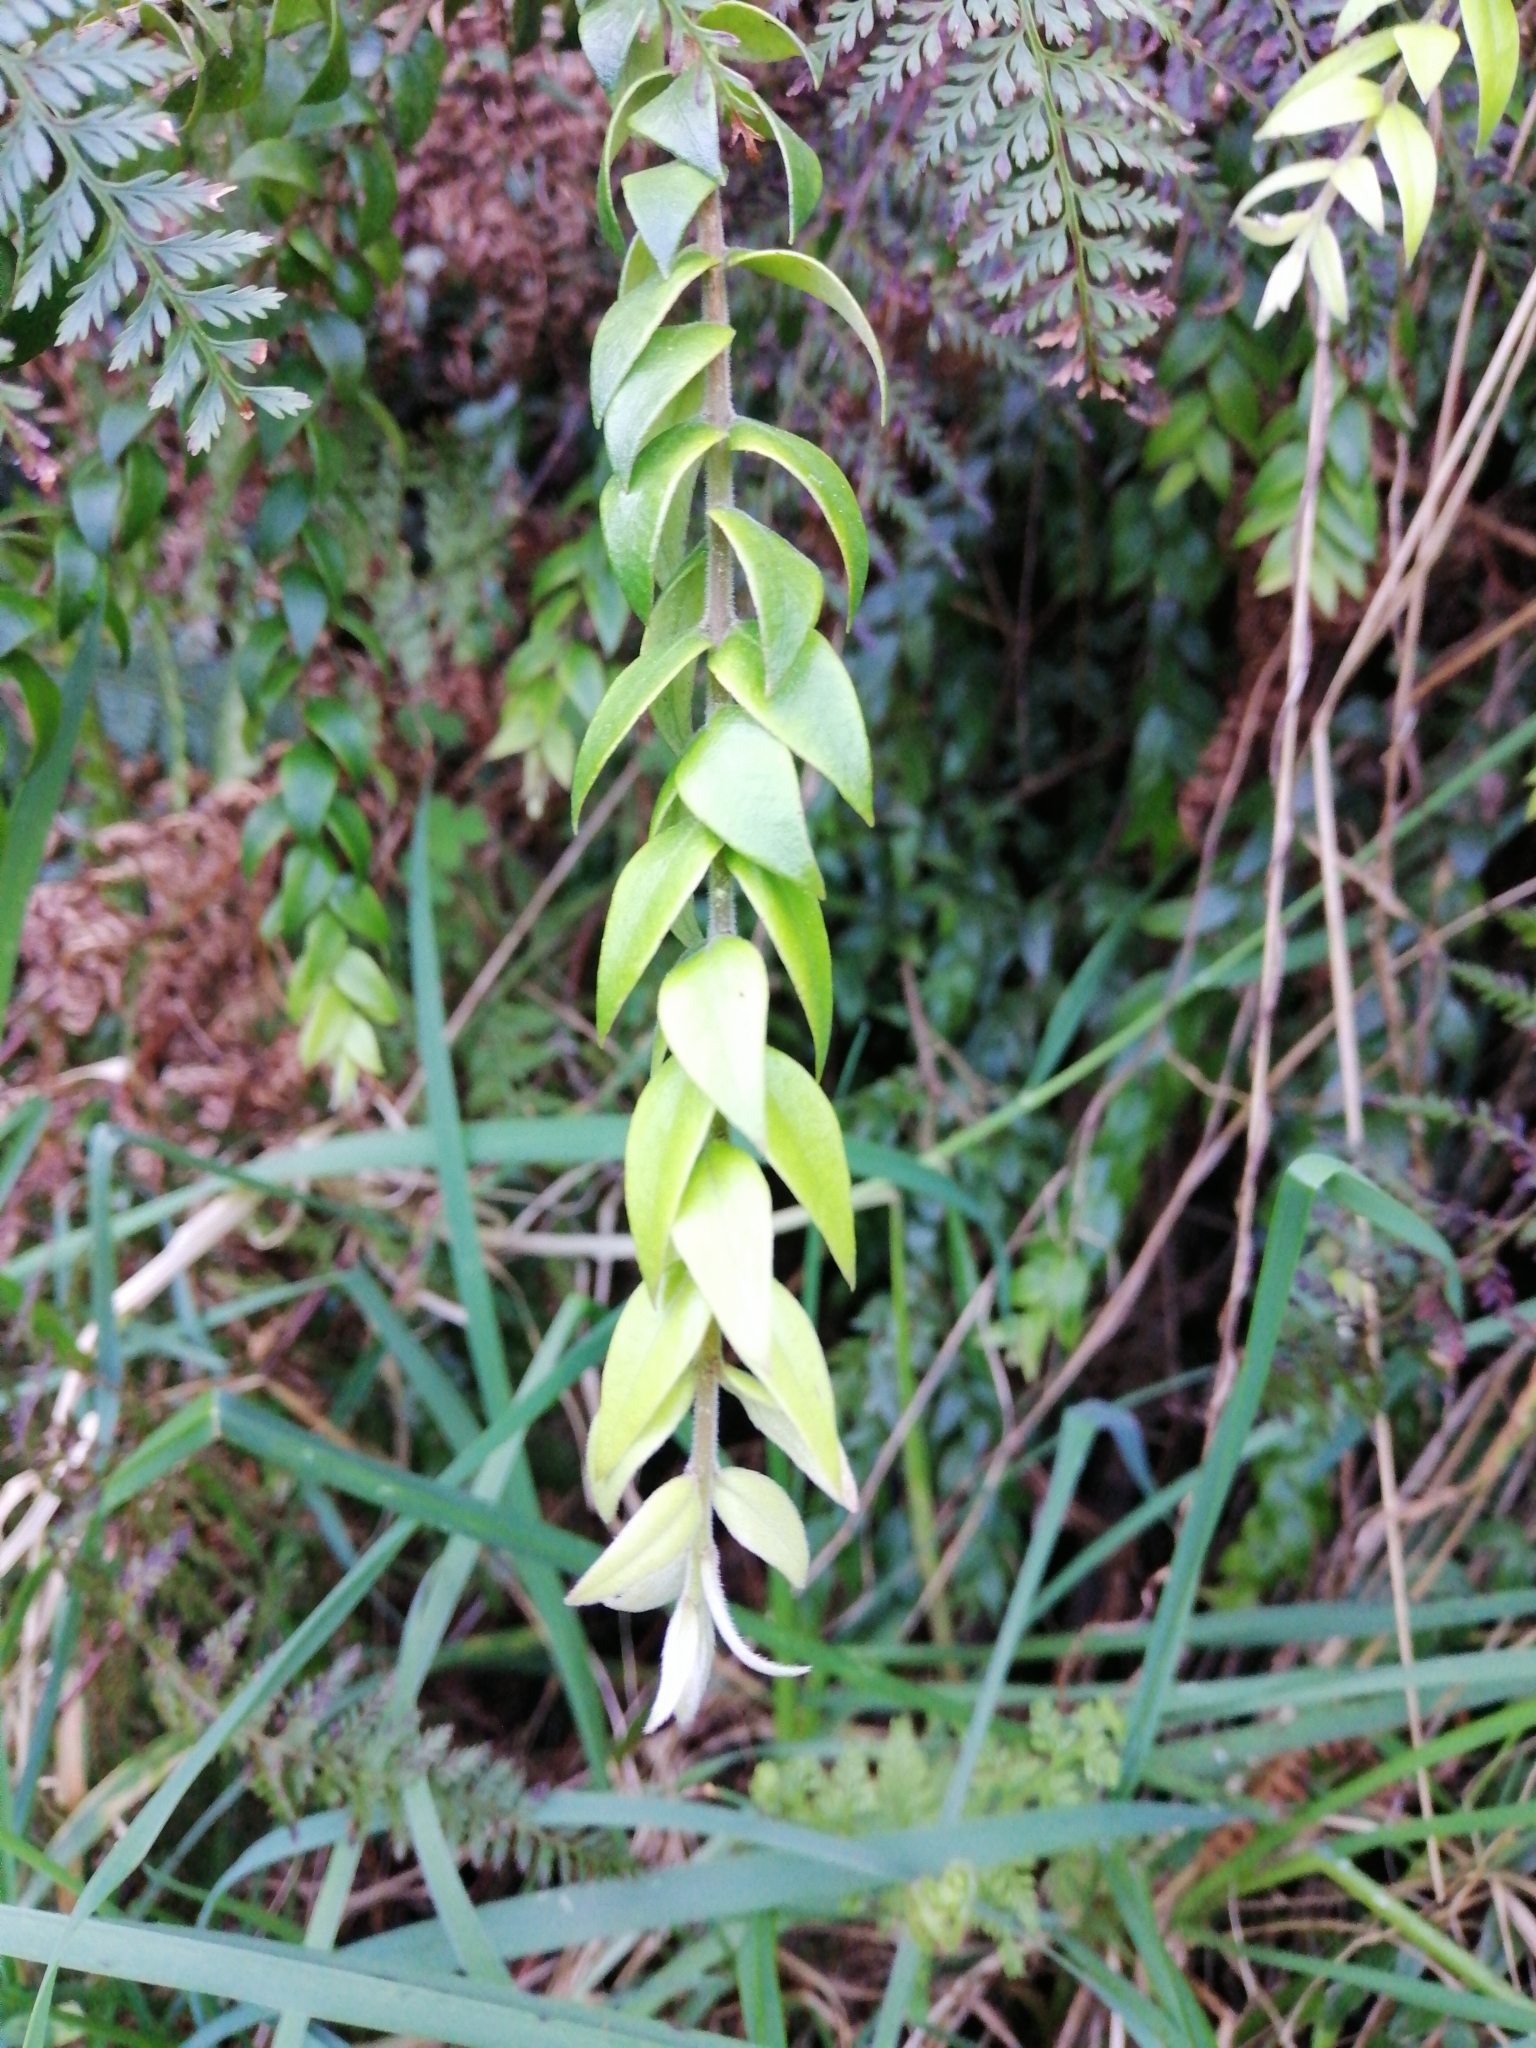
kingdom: Plantae
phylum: Tracheophyta
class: Magnoliopsida
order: Myrtales
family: Myrtaceae
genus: Metrosideros
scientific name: Metrosideros colensoi
